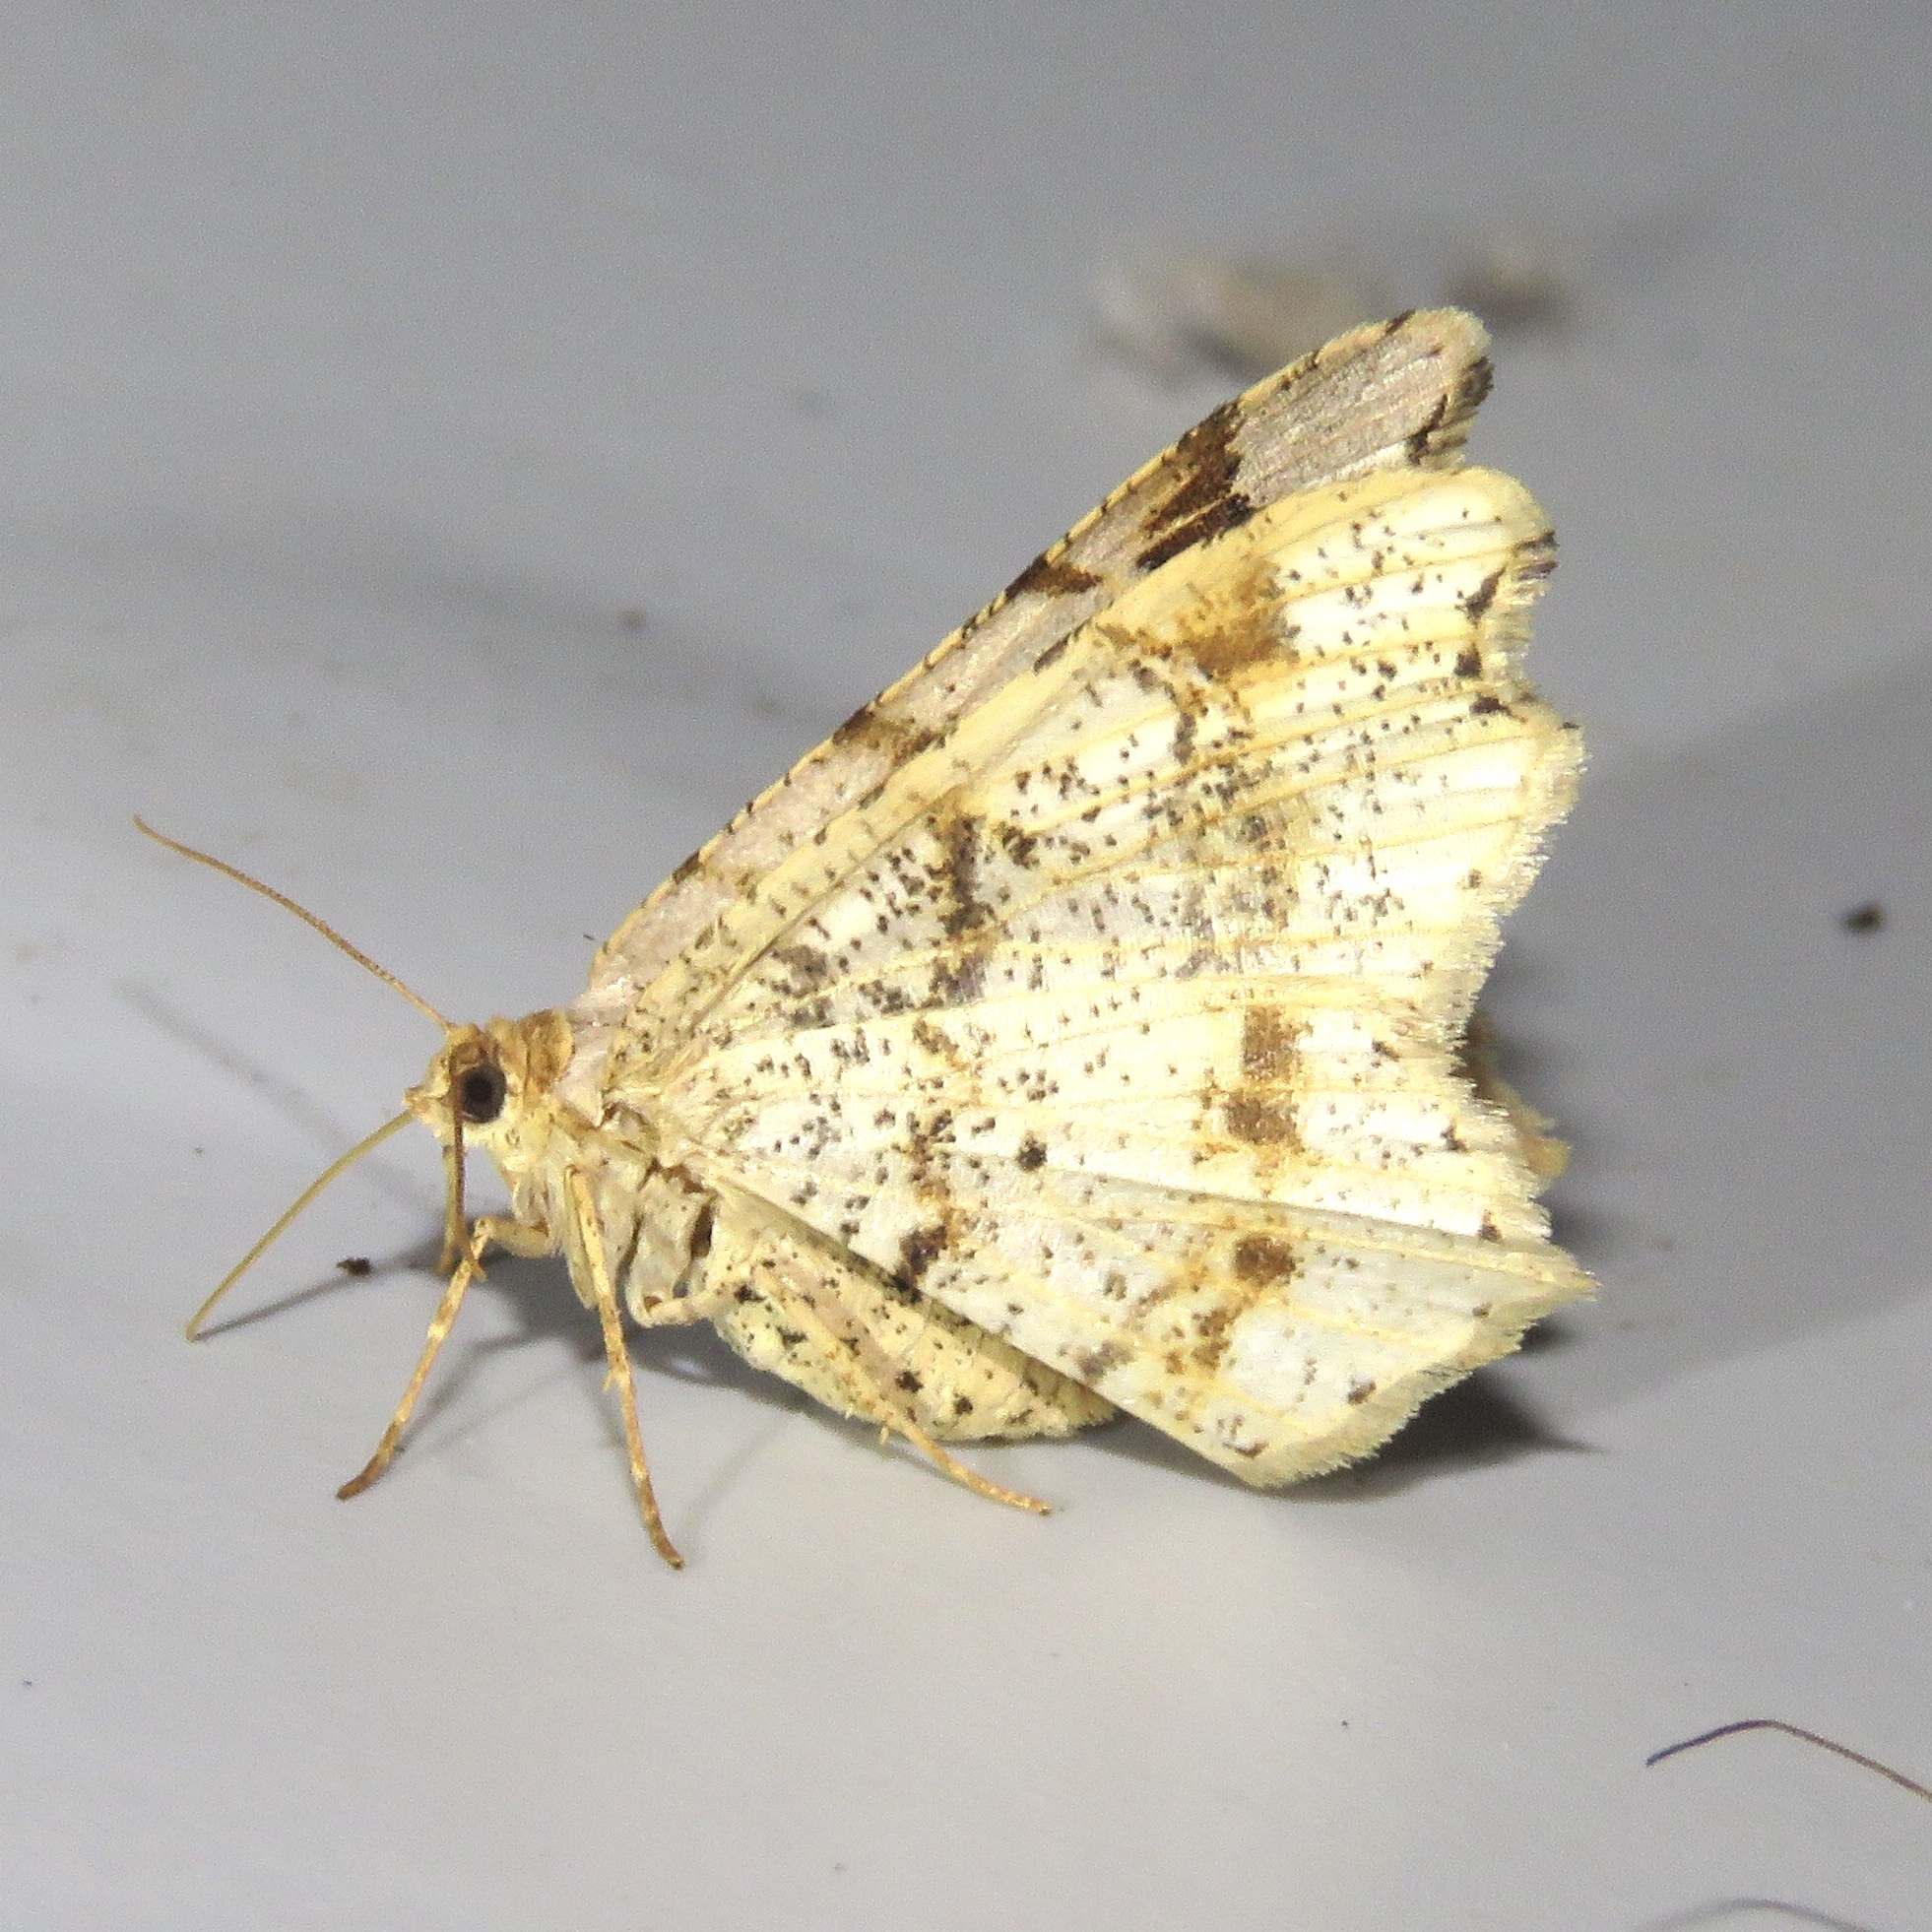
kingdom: Animalia
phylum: Arthropoda
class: Insecta
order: Lepidoptera
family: Geometridae
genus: Macaria
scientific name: Macaria aemulataria
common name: Common angle
